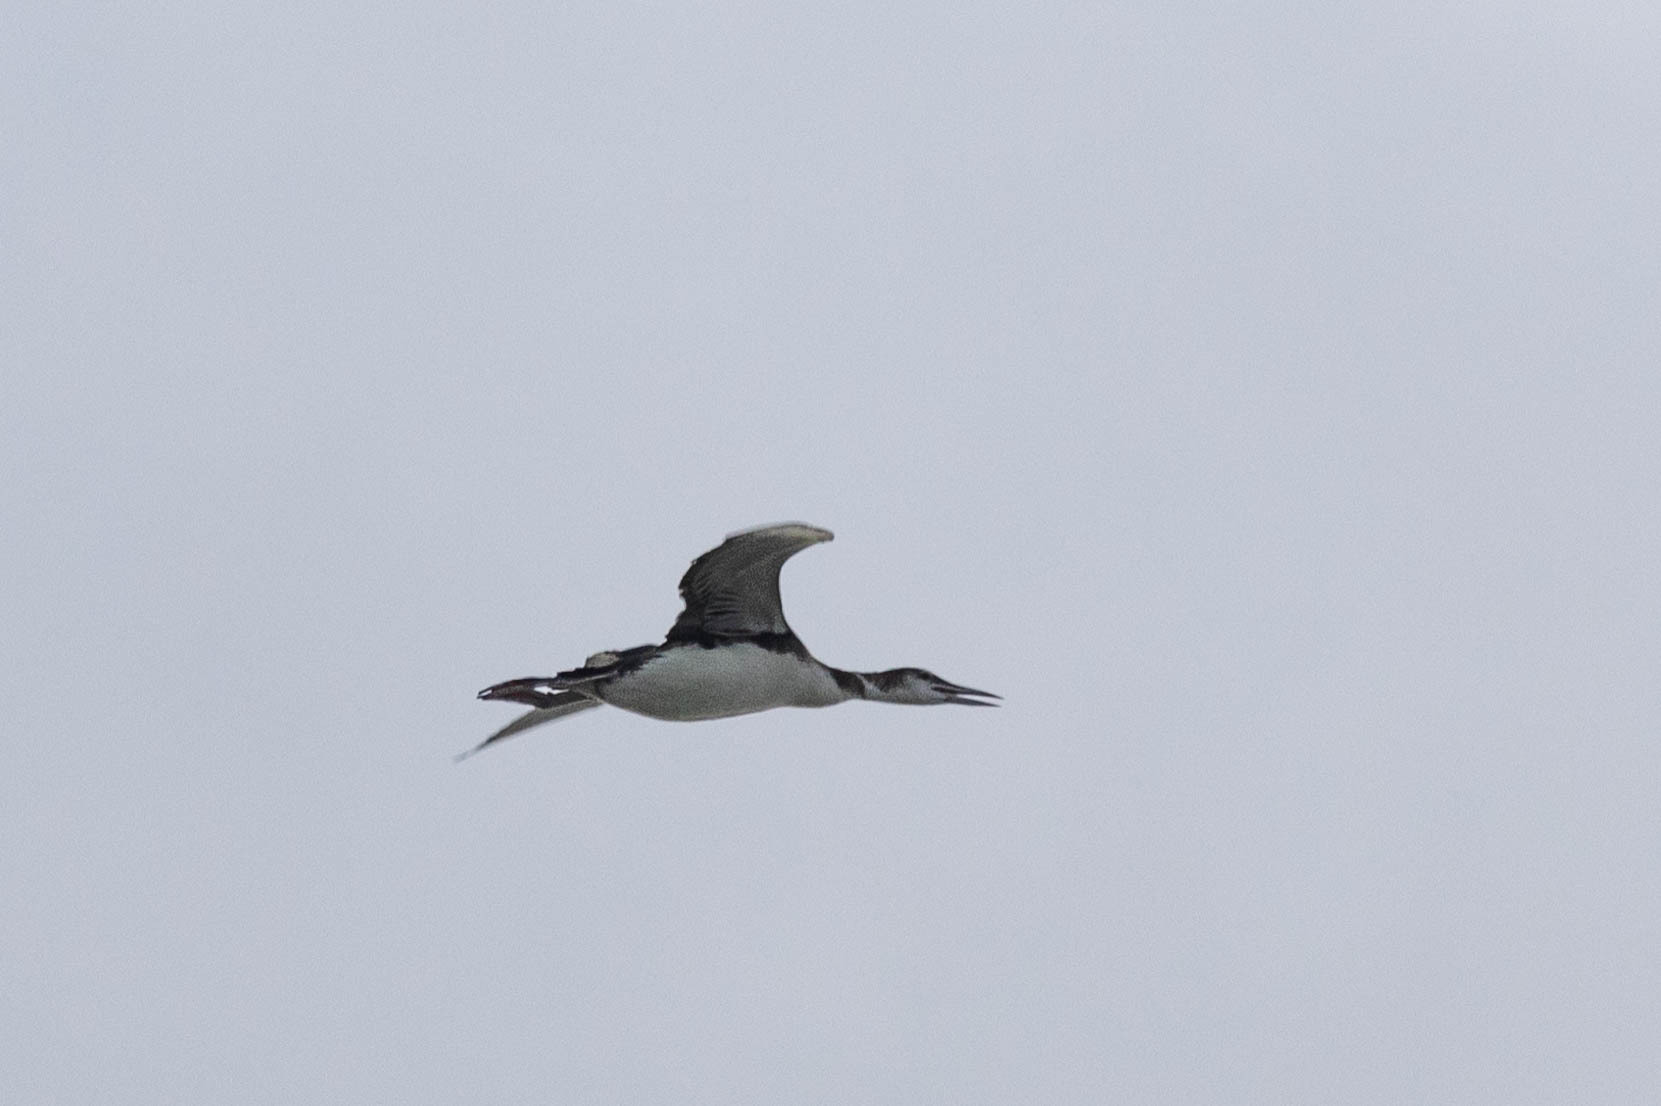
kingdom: Animalia
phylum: Chordata
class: Aves
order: Gaviiformes
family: Gaviidae
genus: Gavia
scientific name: Gavia immer
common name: Common loon
